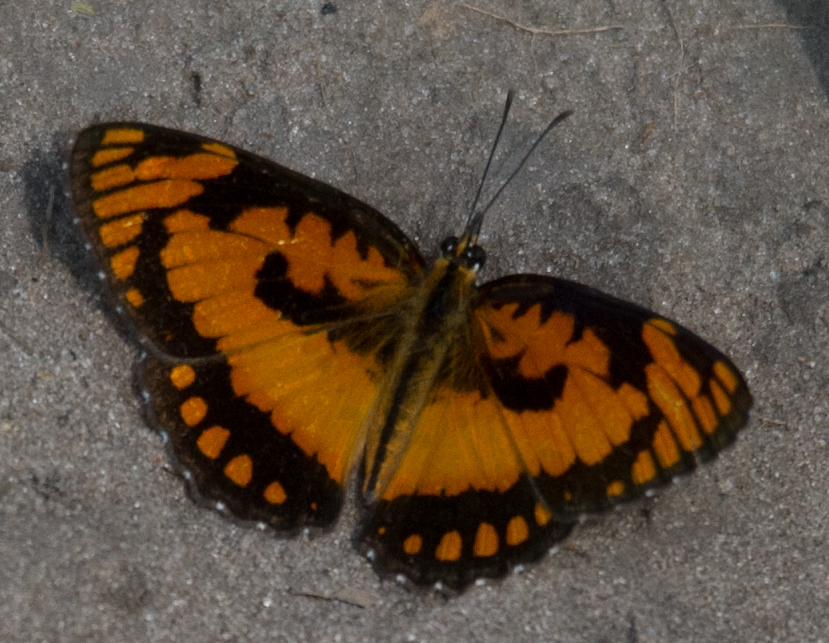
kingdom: Animalia
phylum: Arthropoda
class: Insecta
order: Lepidoptera
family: Nymphalidae
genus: Byblia
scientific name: Byblia acheloia
